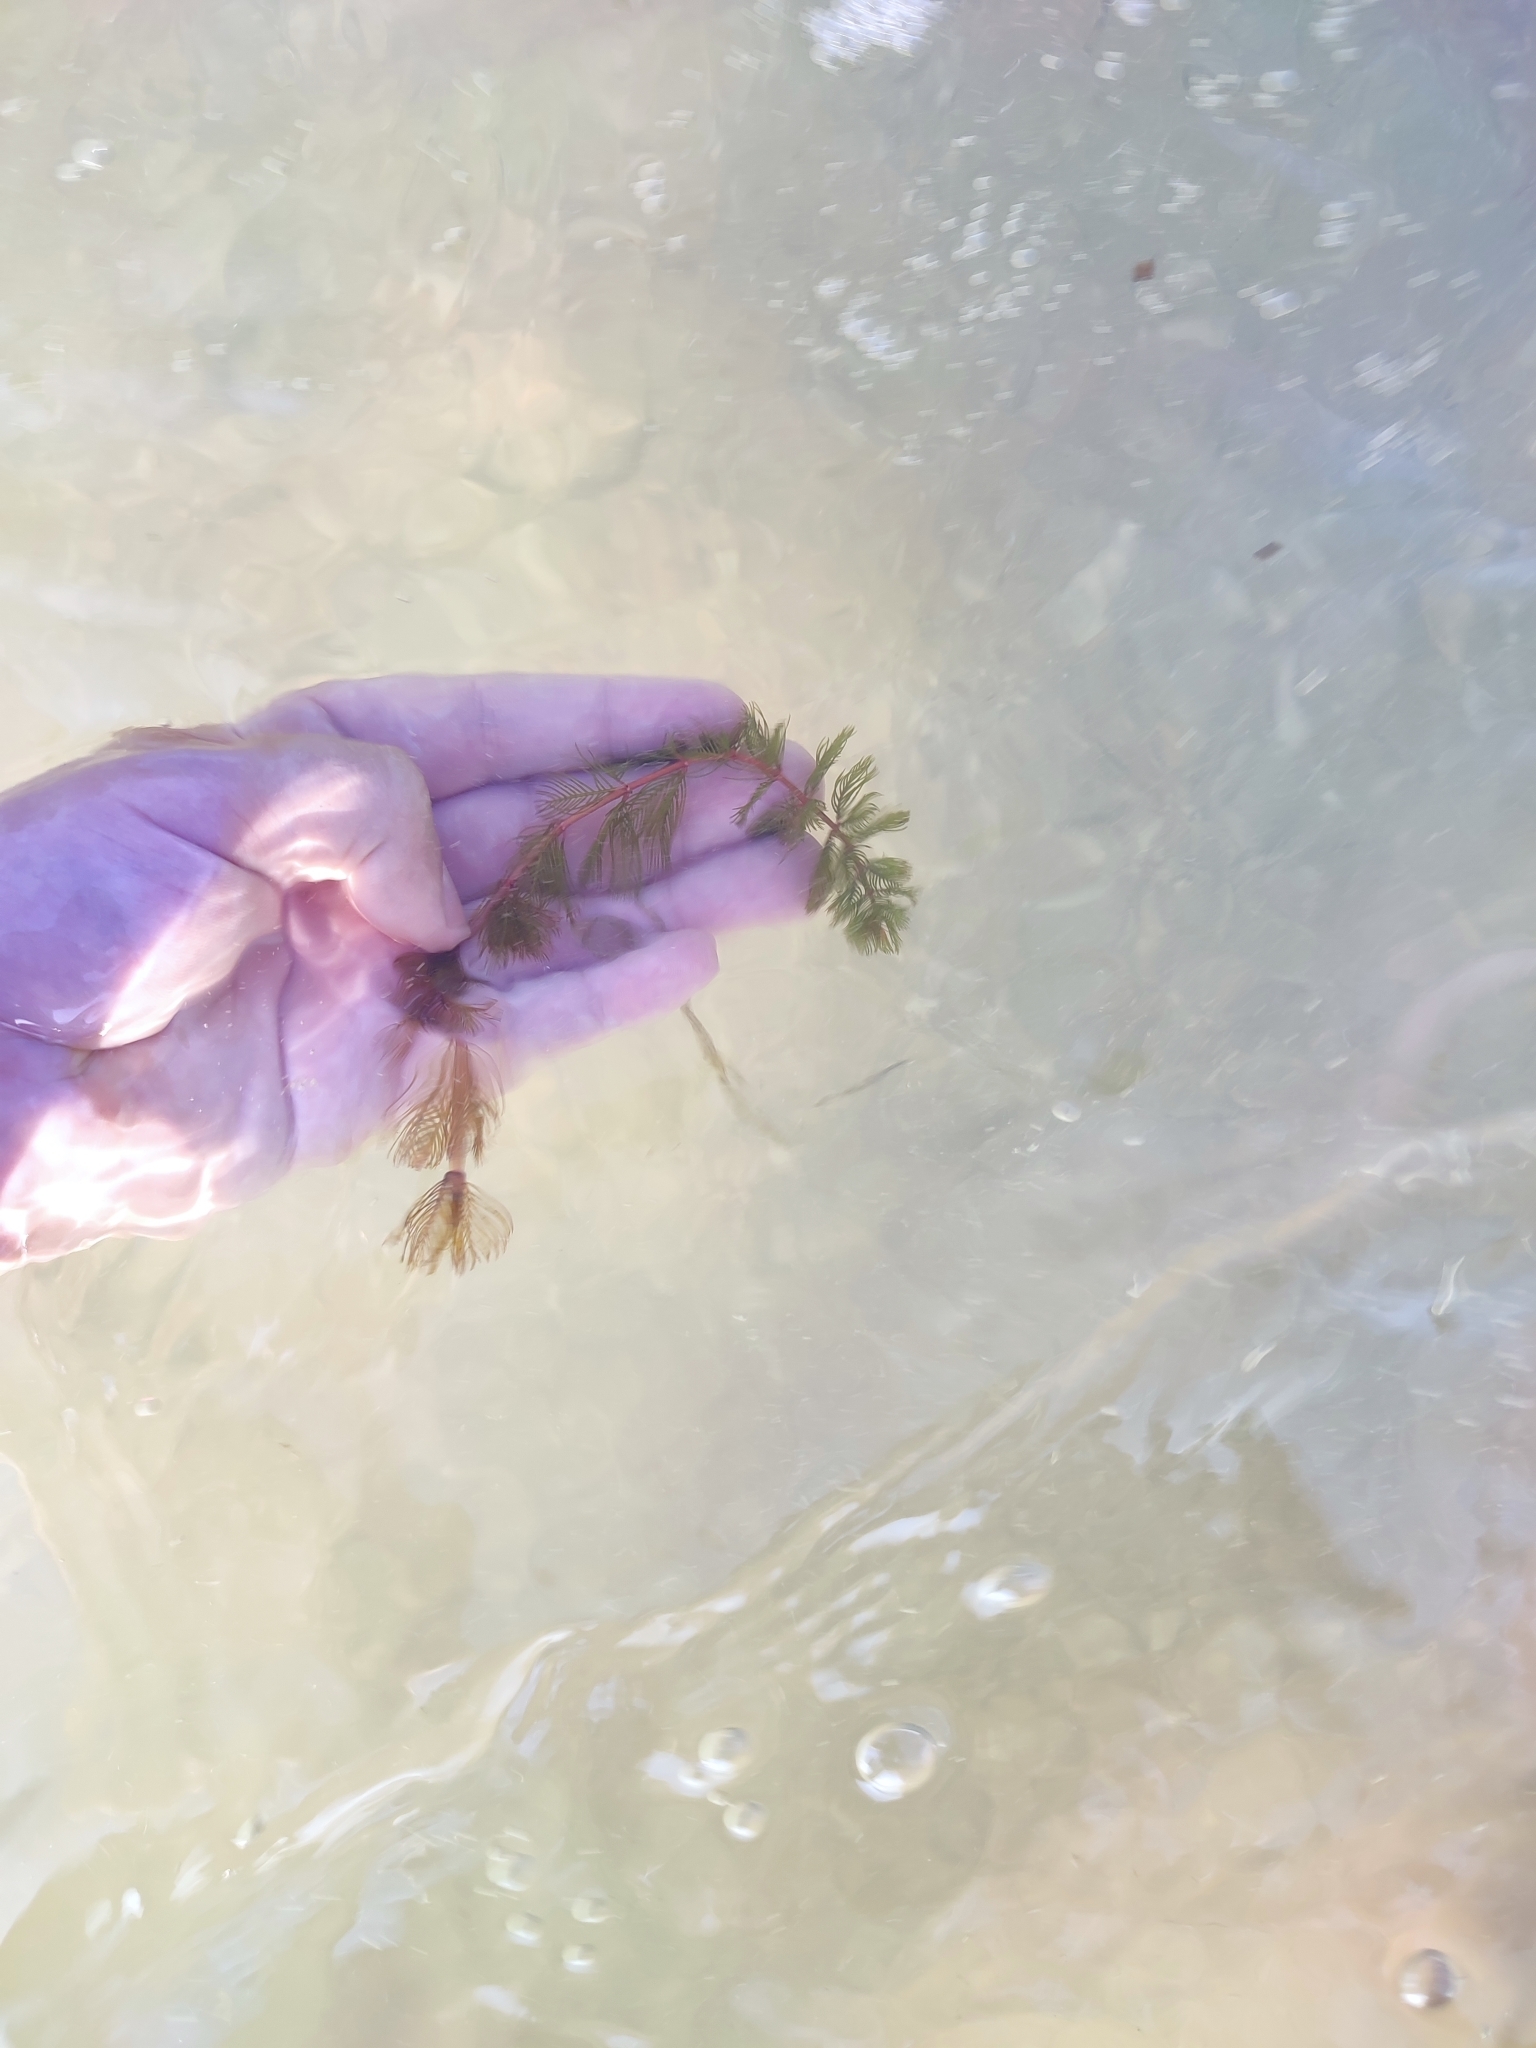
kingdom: Plantae
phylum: Tracheophyta
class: Magnoliopsida
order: Saxifragales
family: Haloragaceae
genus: Myriophyllum
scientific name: Myriophyllum spicatum
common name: Spiked water-milfoil
